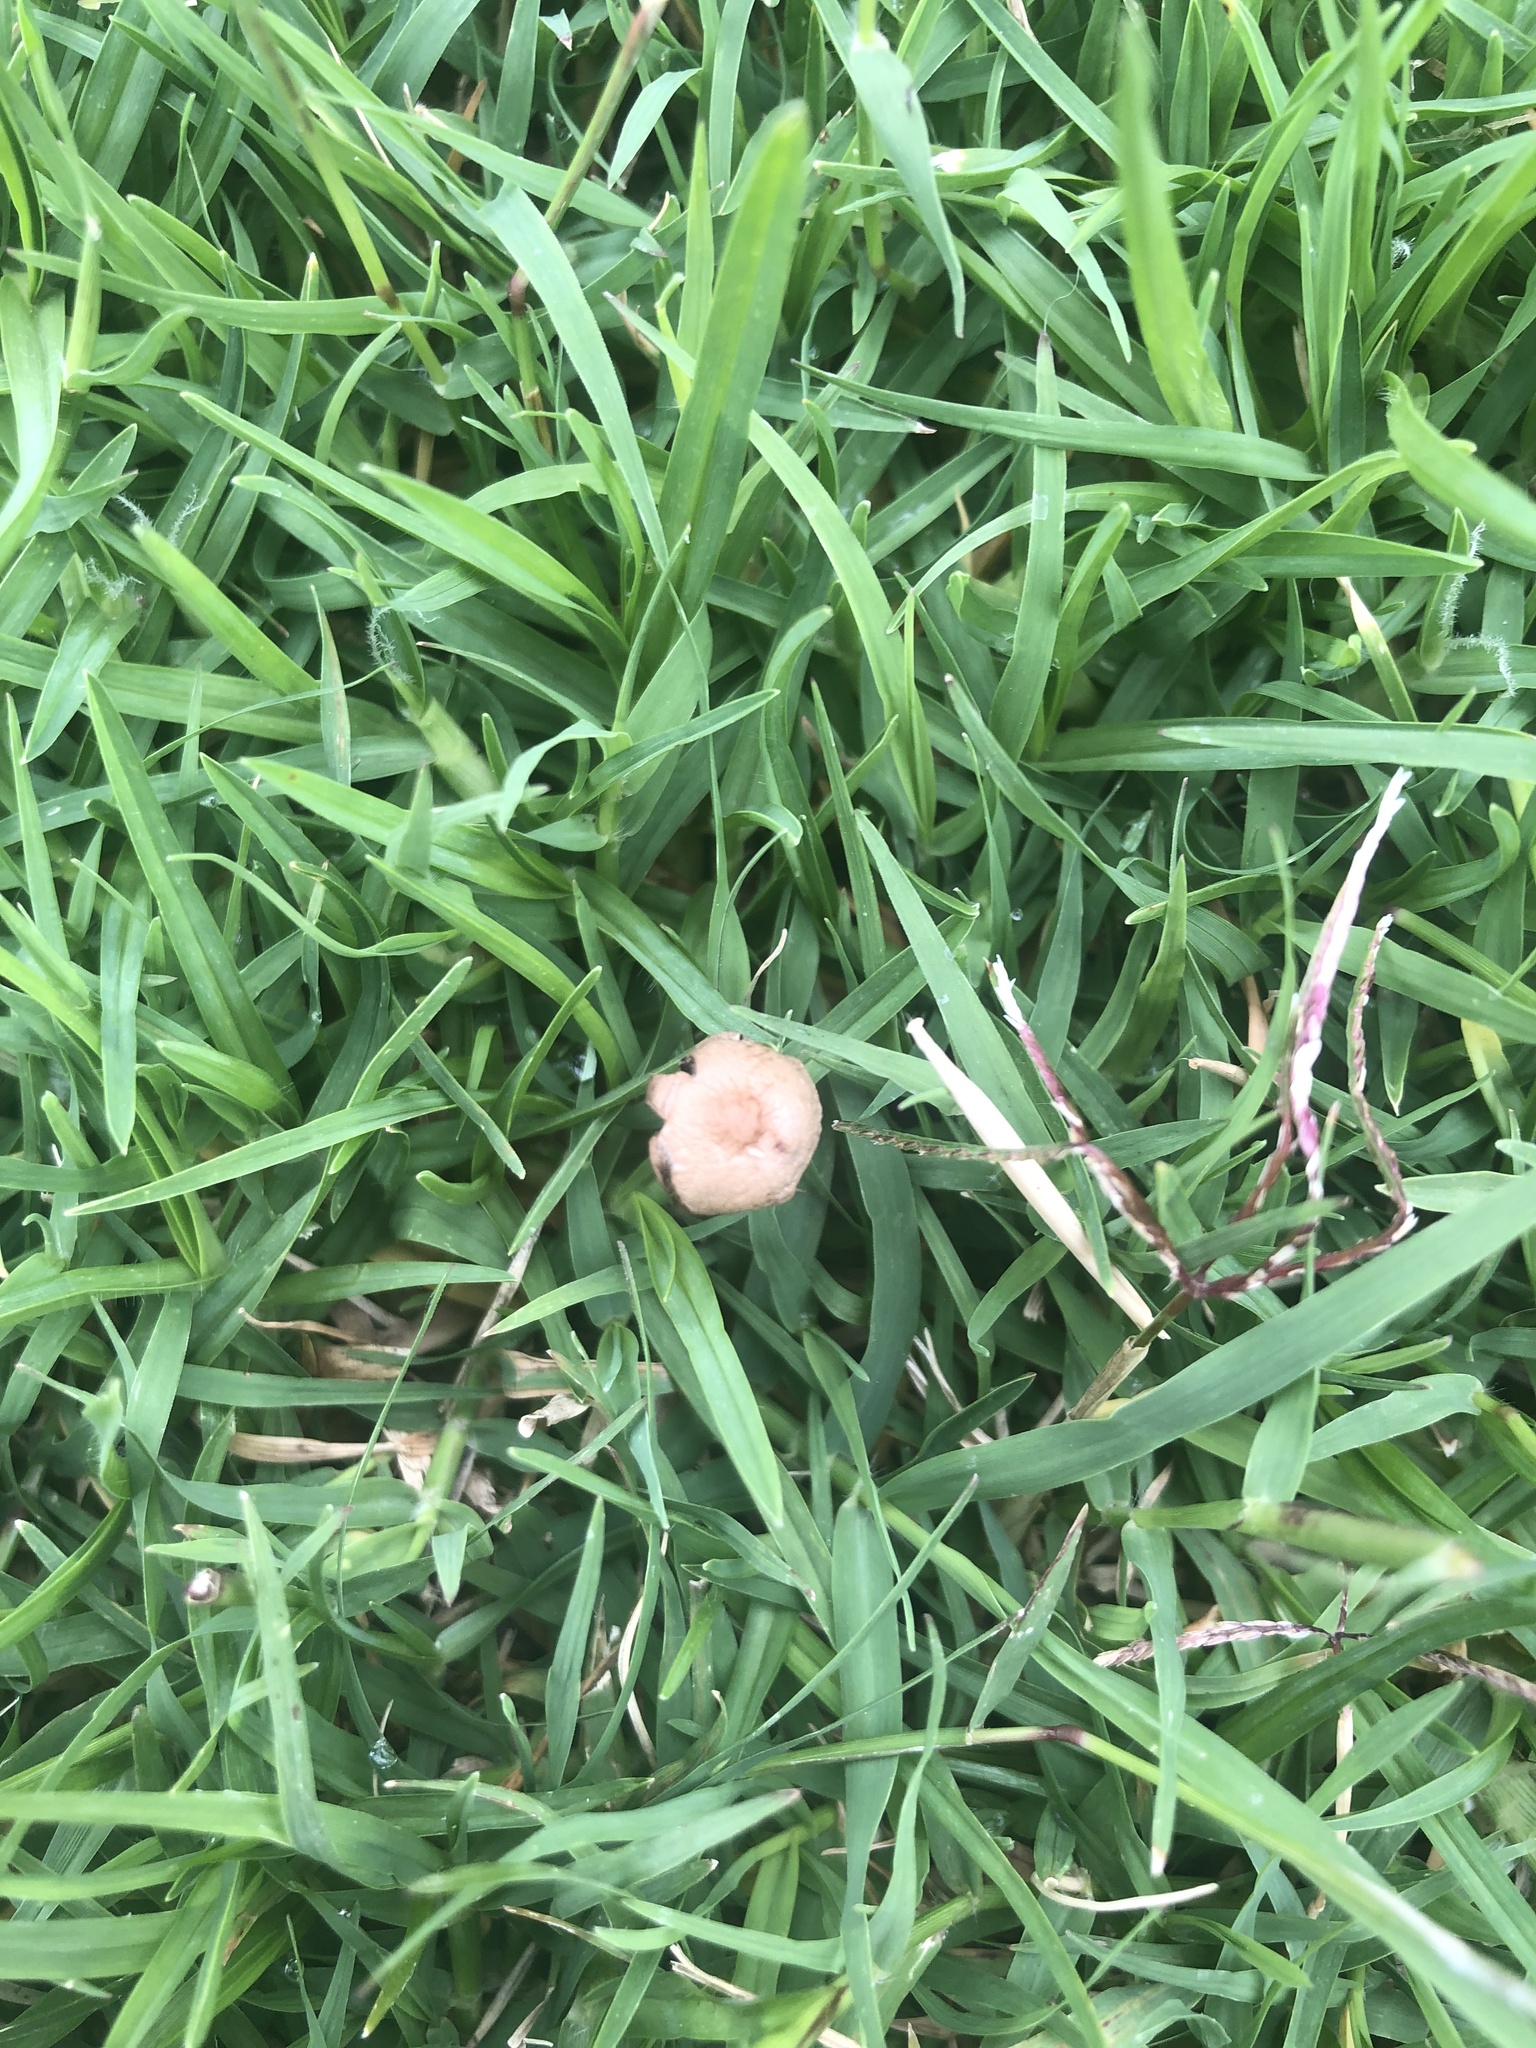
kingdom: Fungi
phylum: Basidiomycota
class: Agaricomycetes
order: Agaricales
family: Bolbitiaceae
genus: Panaeolus
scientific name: Panaeolus cinctulus
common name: Banded mottlegill
